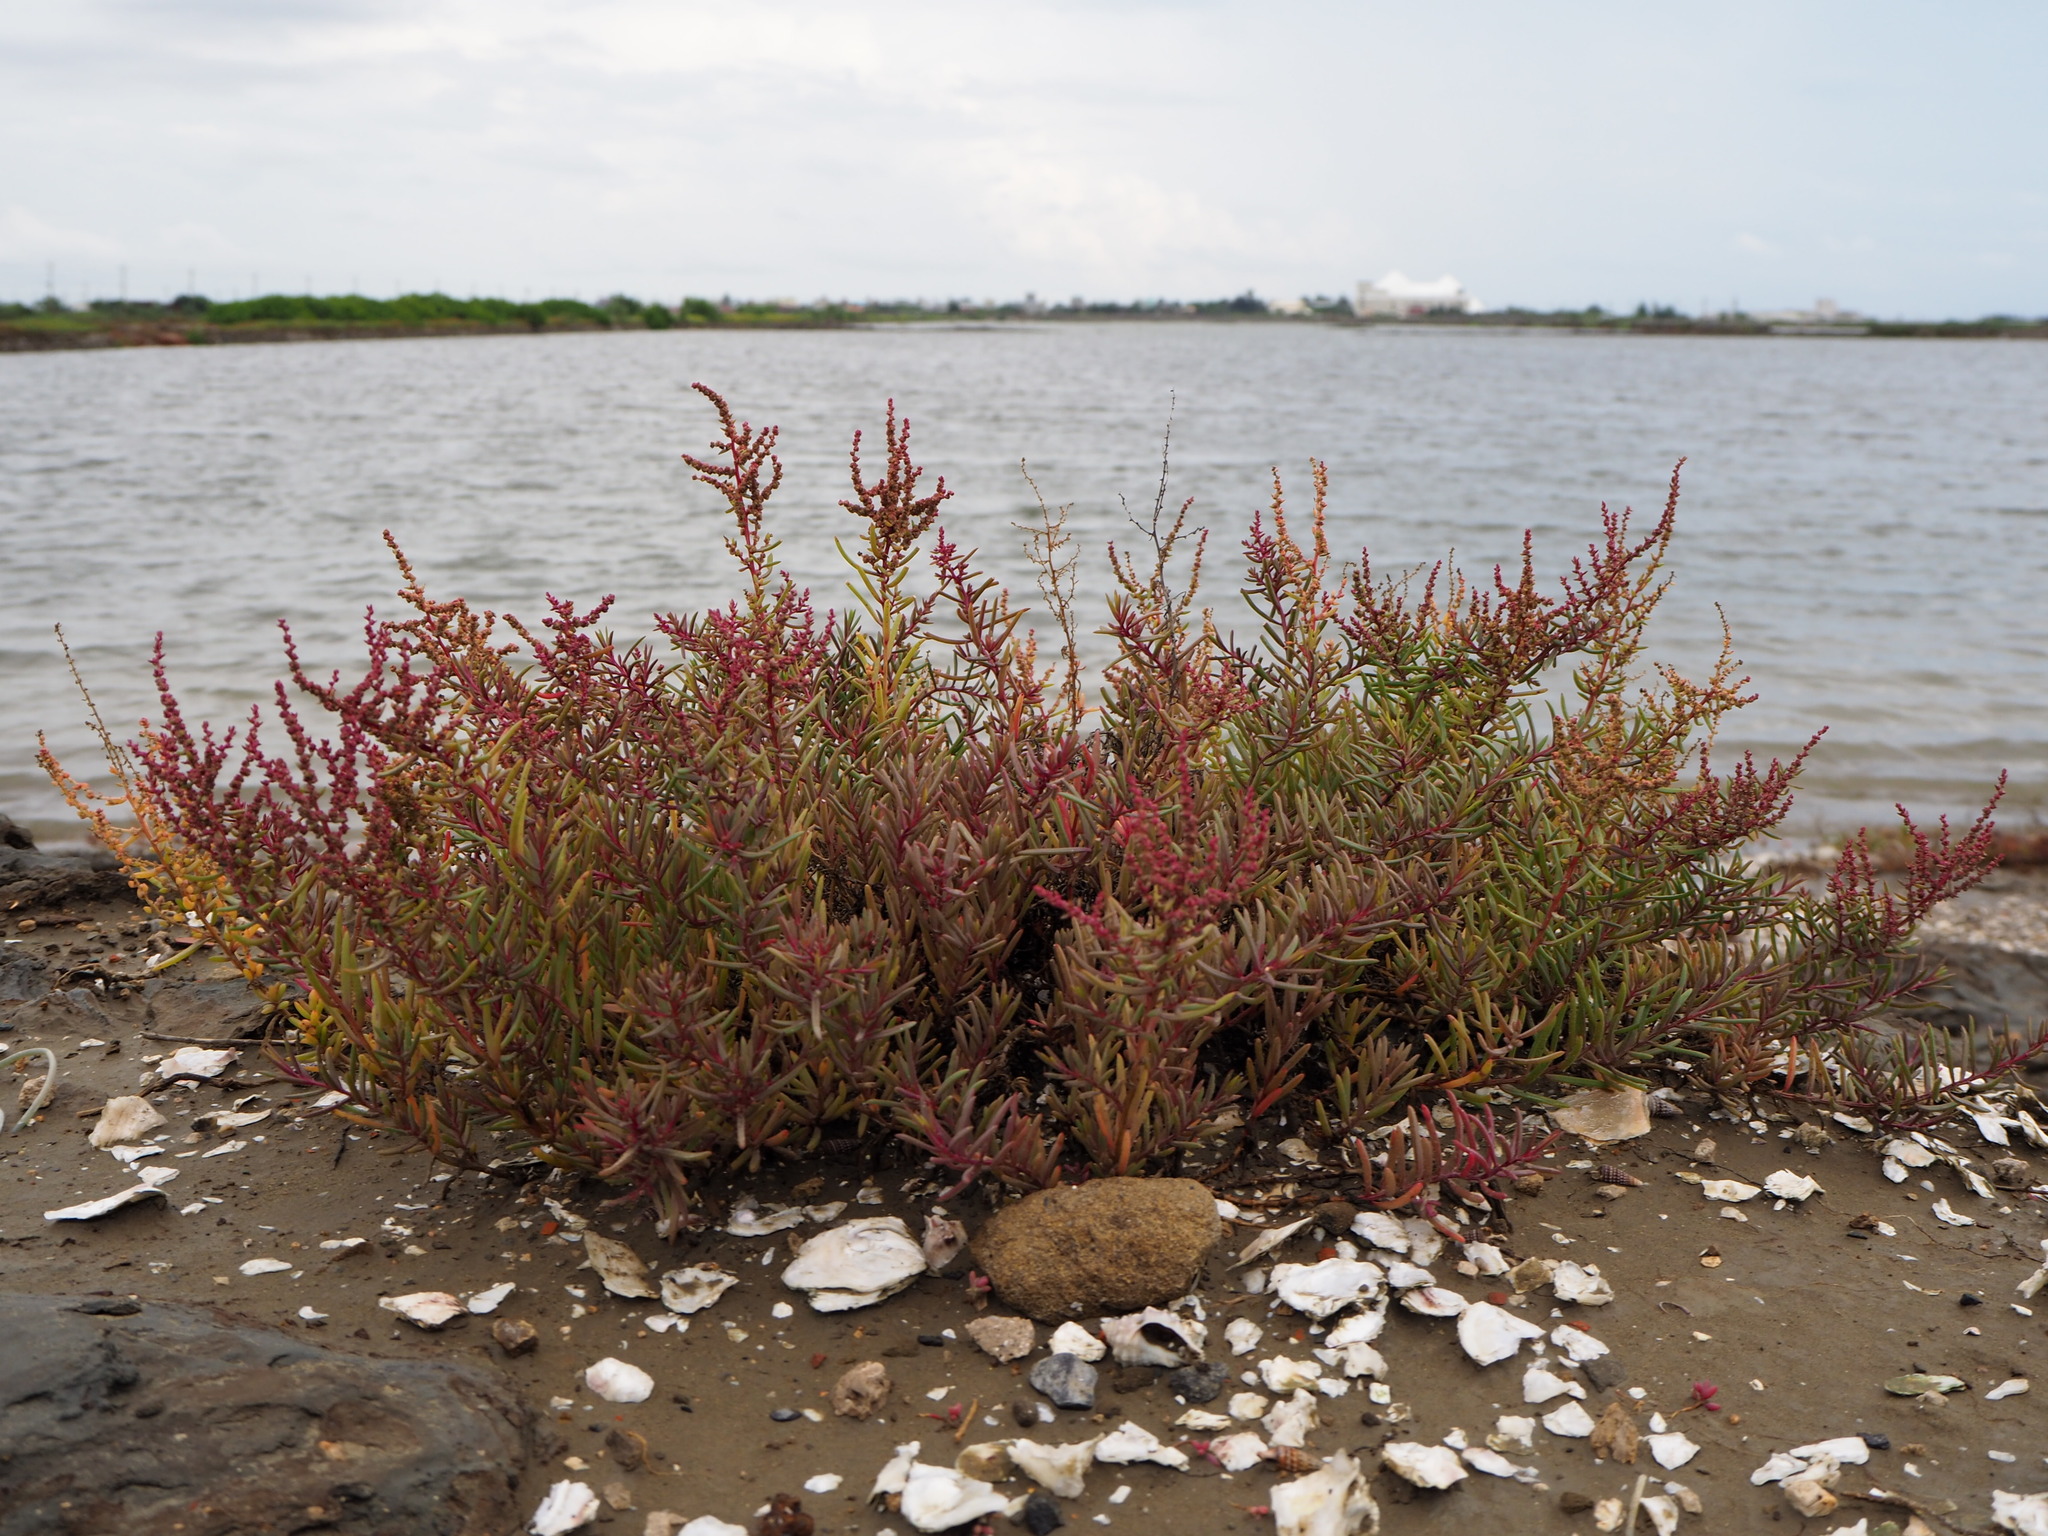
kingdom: Plantae
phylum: Tracheophyta
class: Magnoliopsida
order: Caryophyllales
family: Amaranthaceae
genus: Suaeda
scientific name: Suaeda maritima
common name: Annual sea-blite
